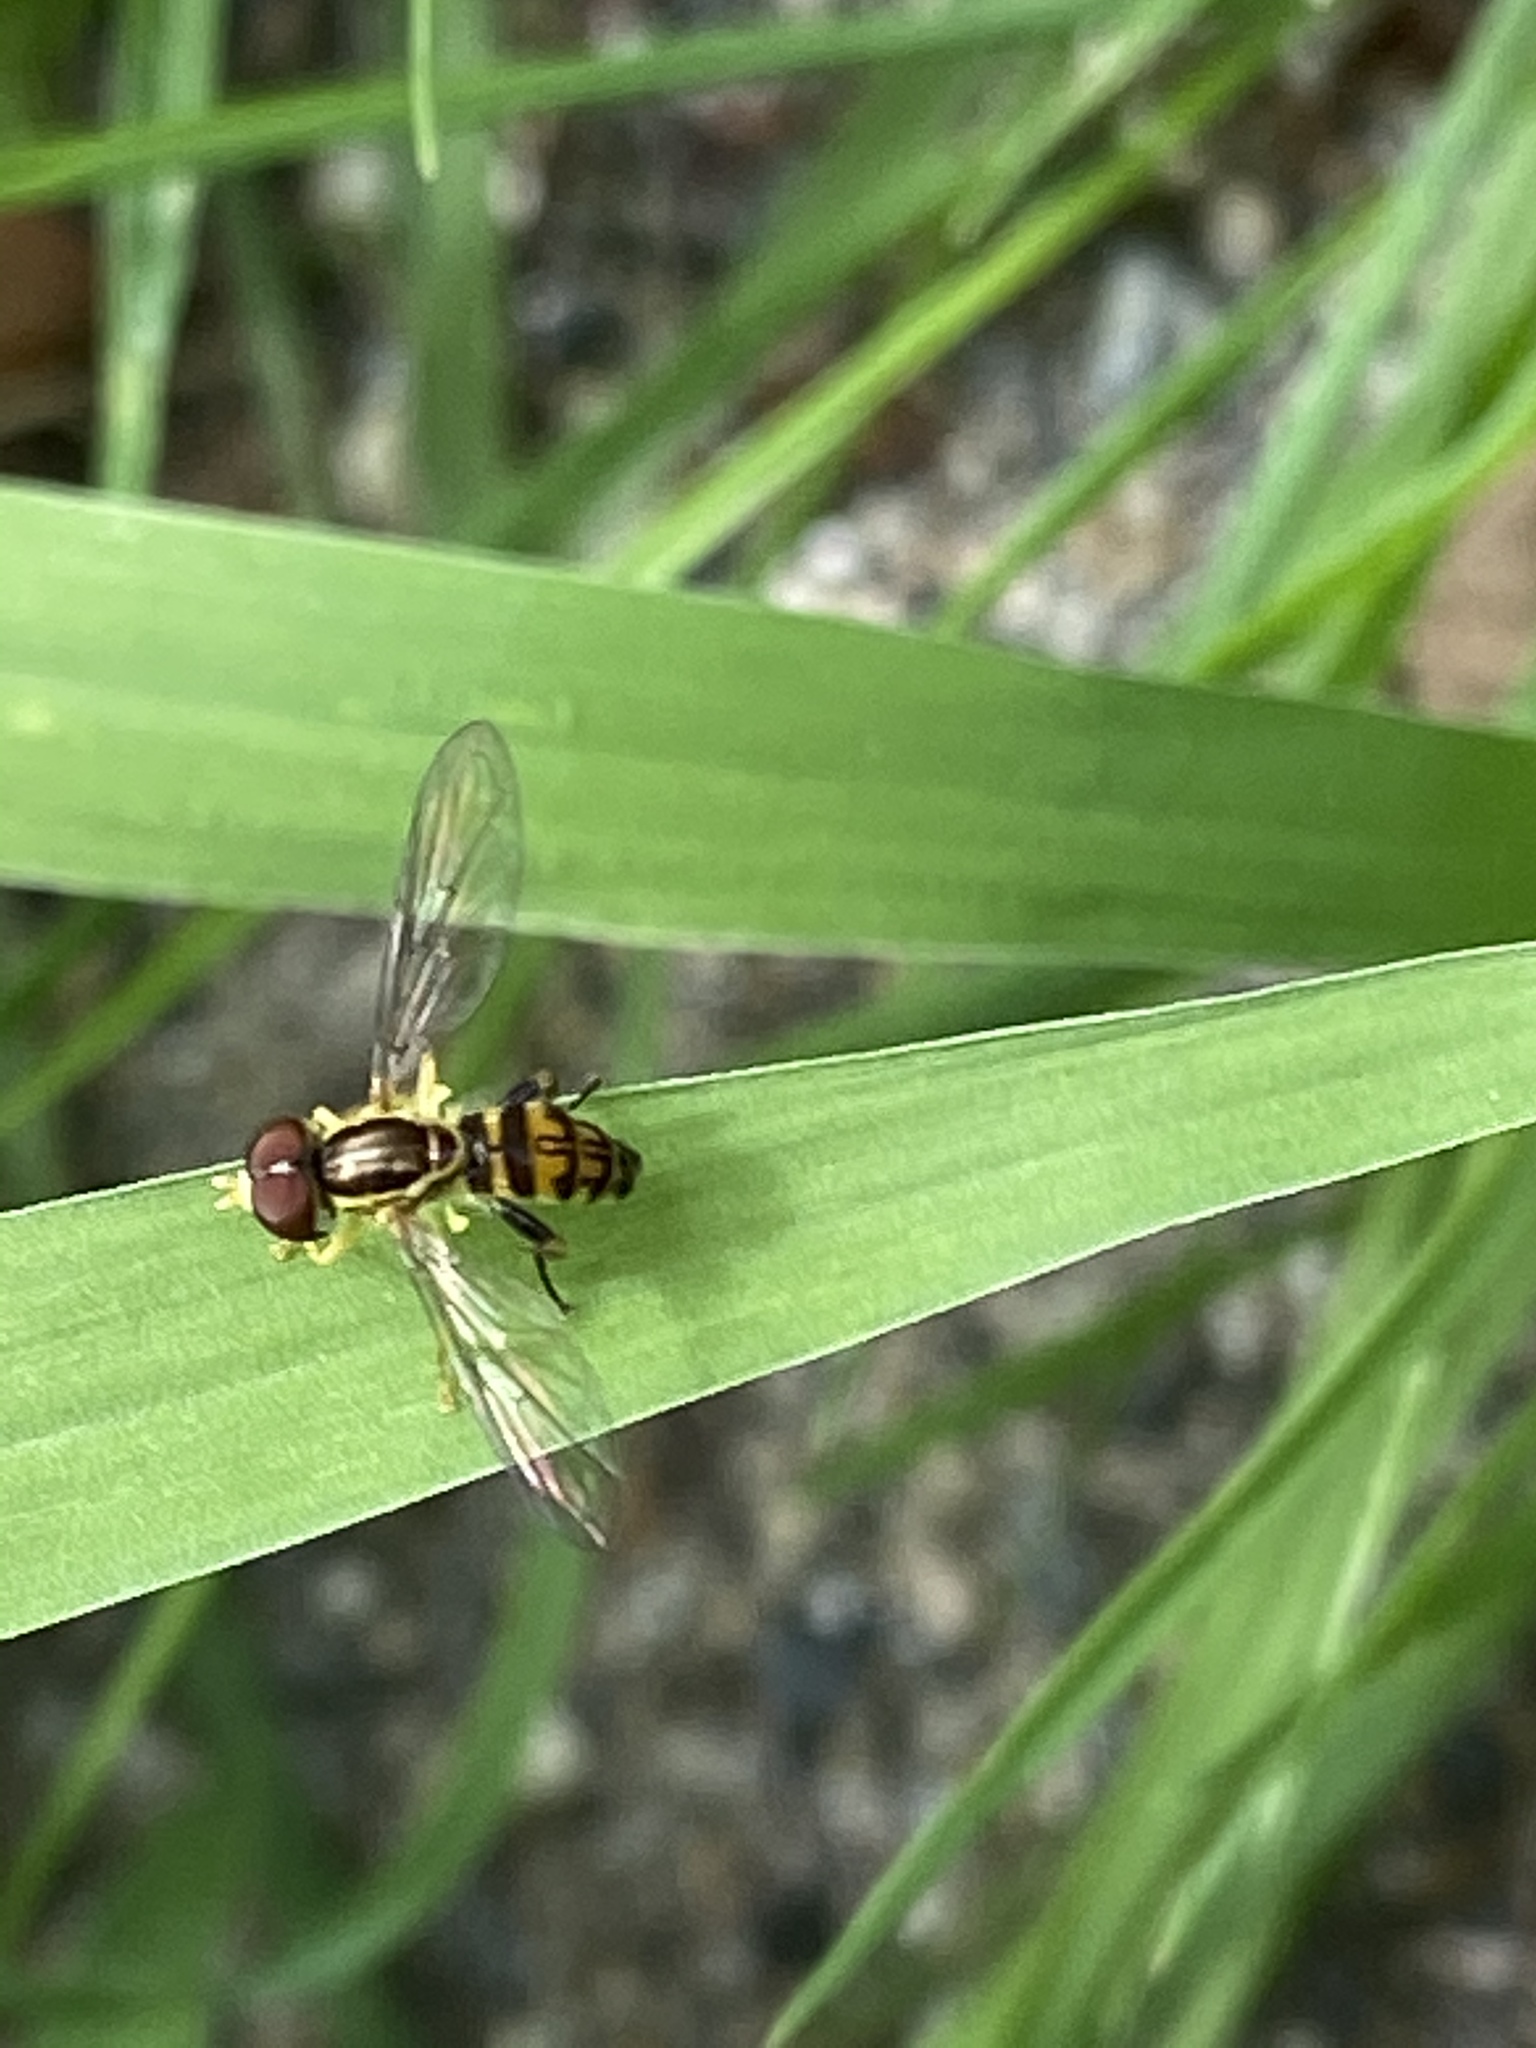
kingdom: Animalia
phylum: Arthropoda
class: Insecta
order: Diptera
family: Syrphidae
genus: Toxomerus
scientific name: Toxomerus geminatus
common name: Eastern calligrapher
